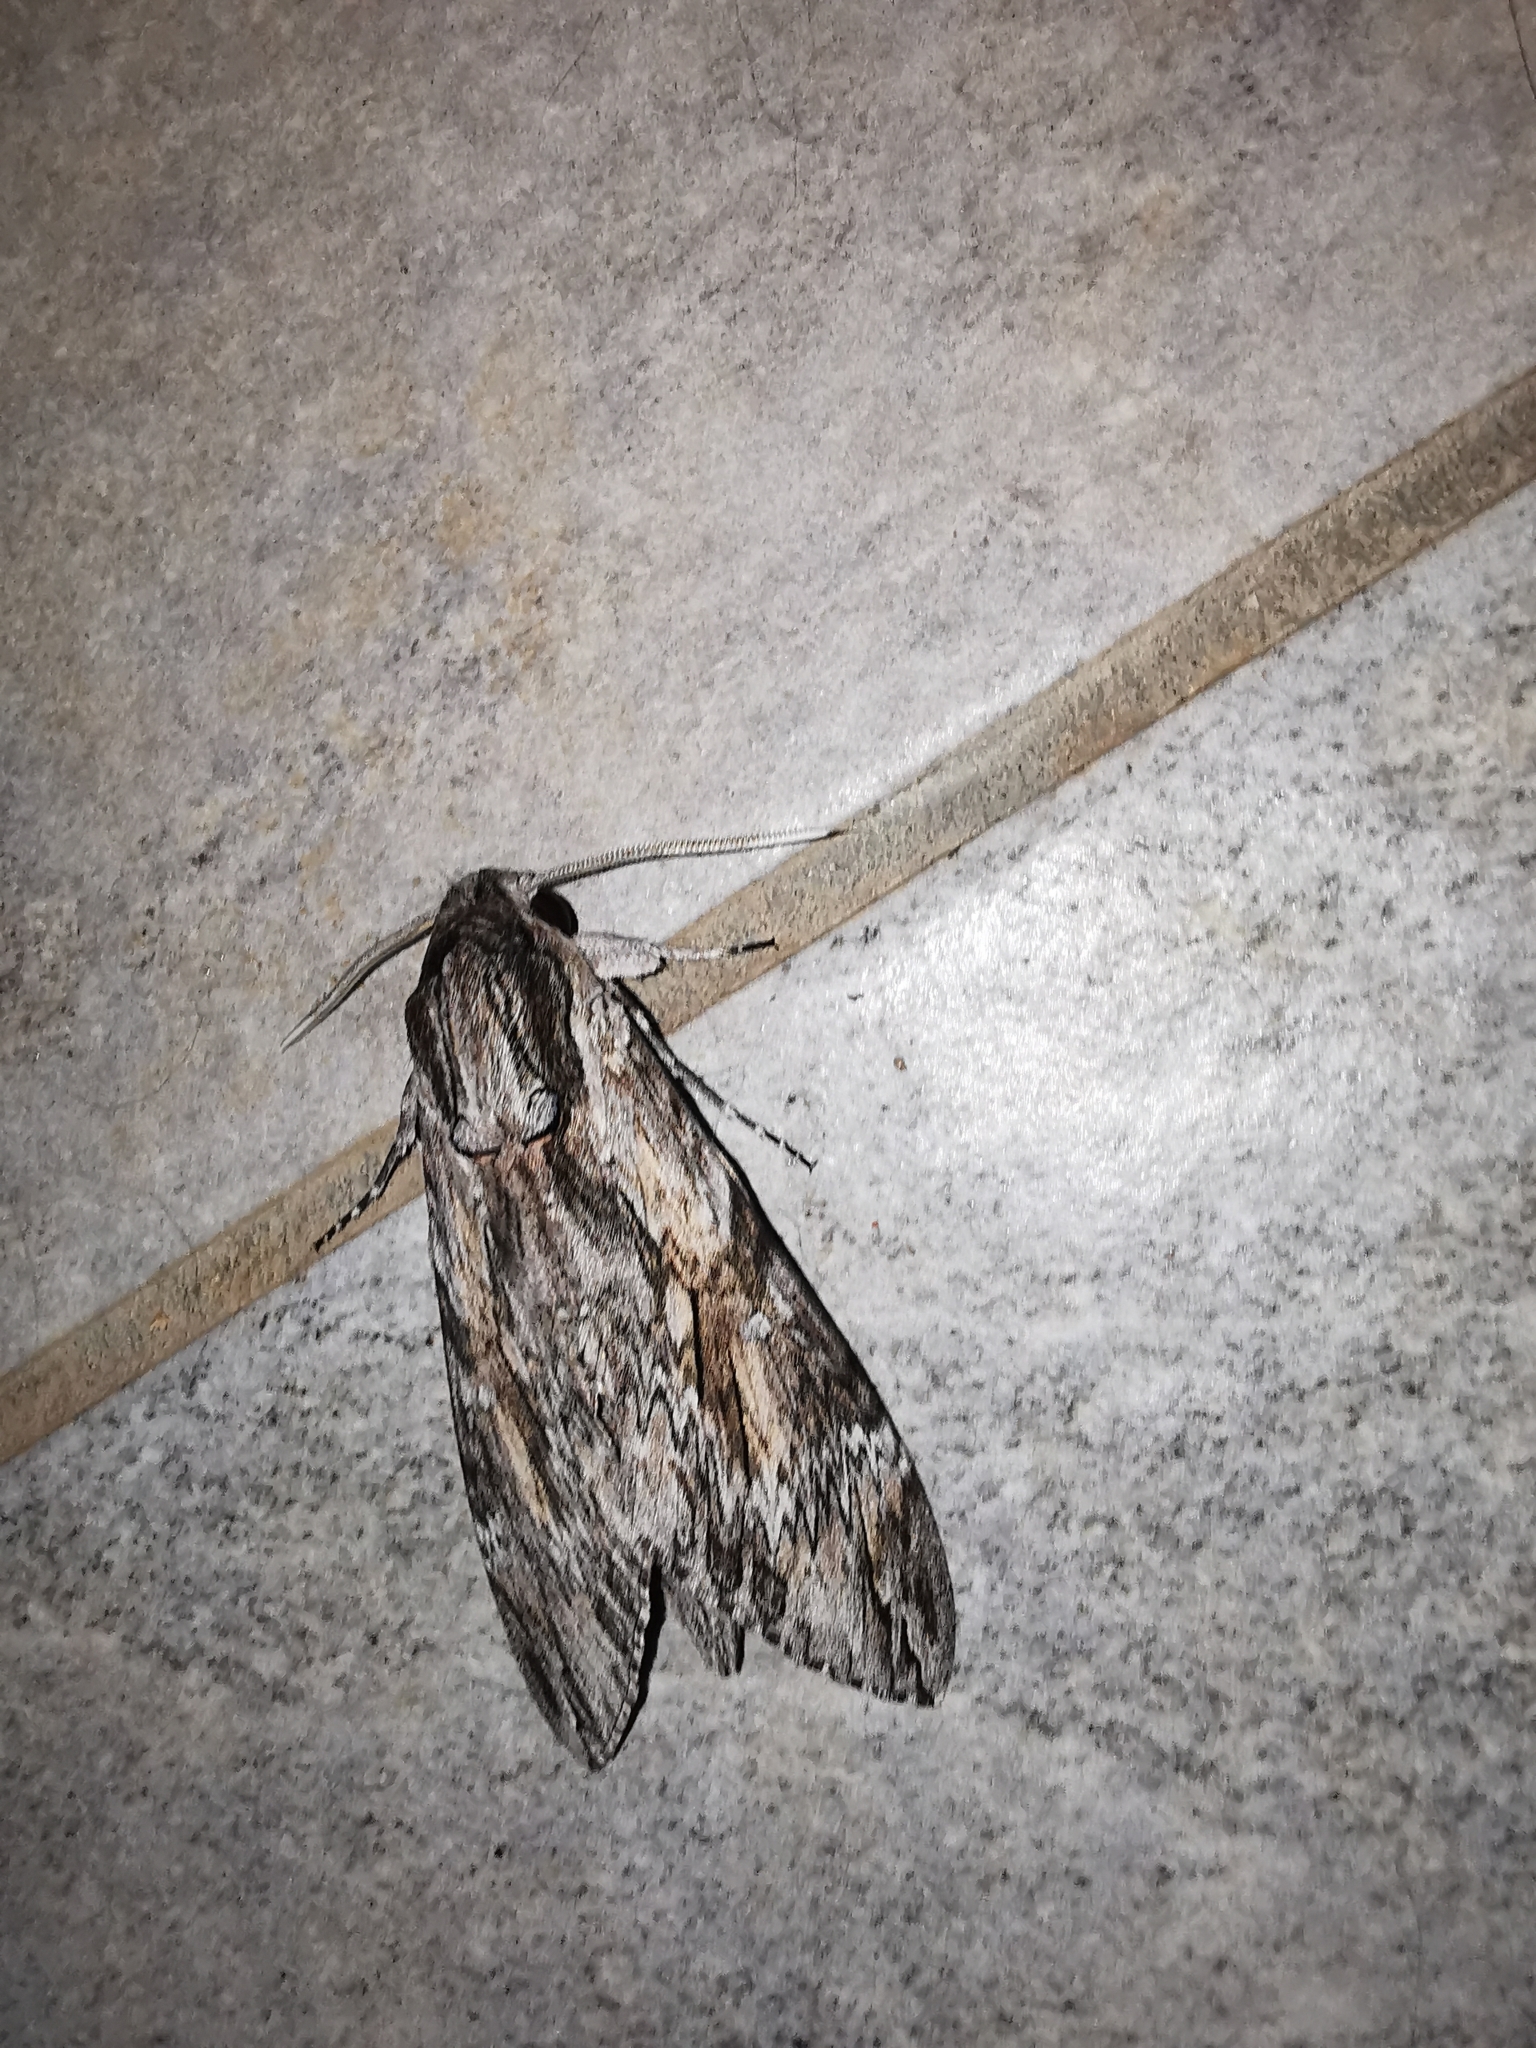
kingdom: Animalia
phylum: Arthropoda
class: Insecta
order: Lepidoptera
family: Sphingidae
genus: Agrius
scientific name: Agrius convolvuli
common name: Convolvulus hawkmoth
